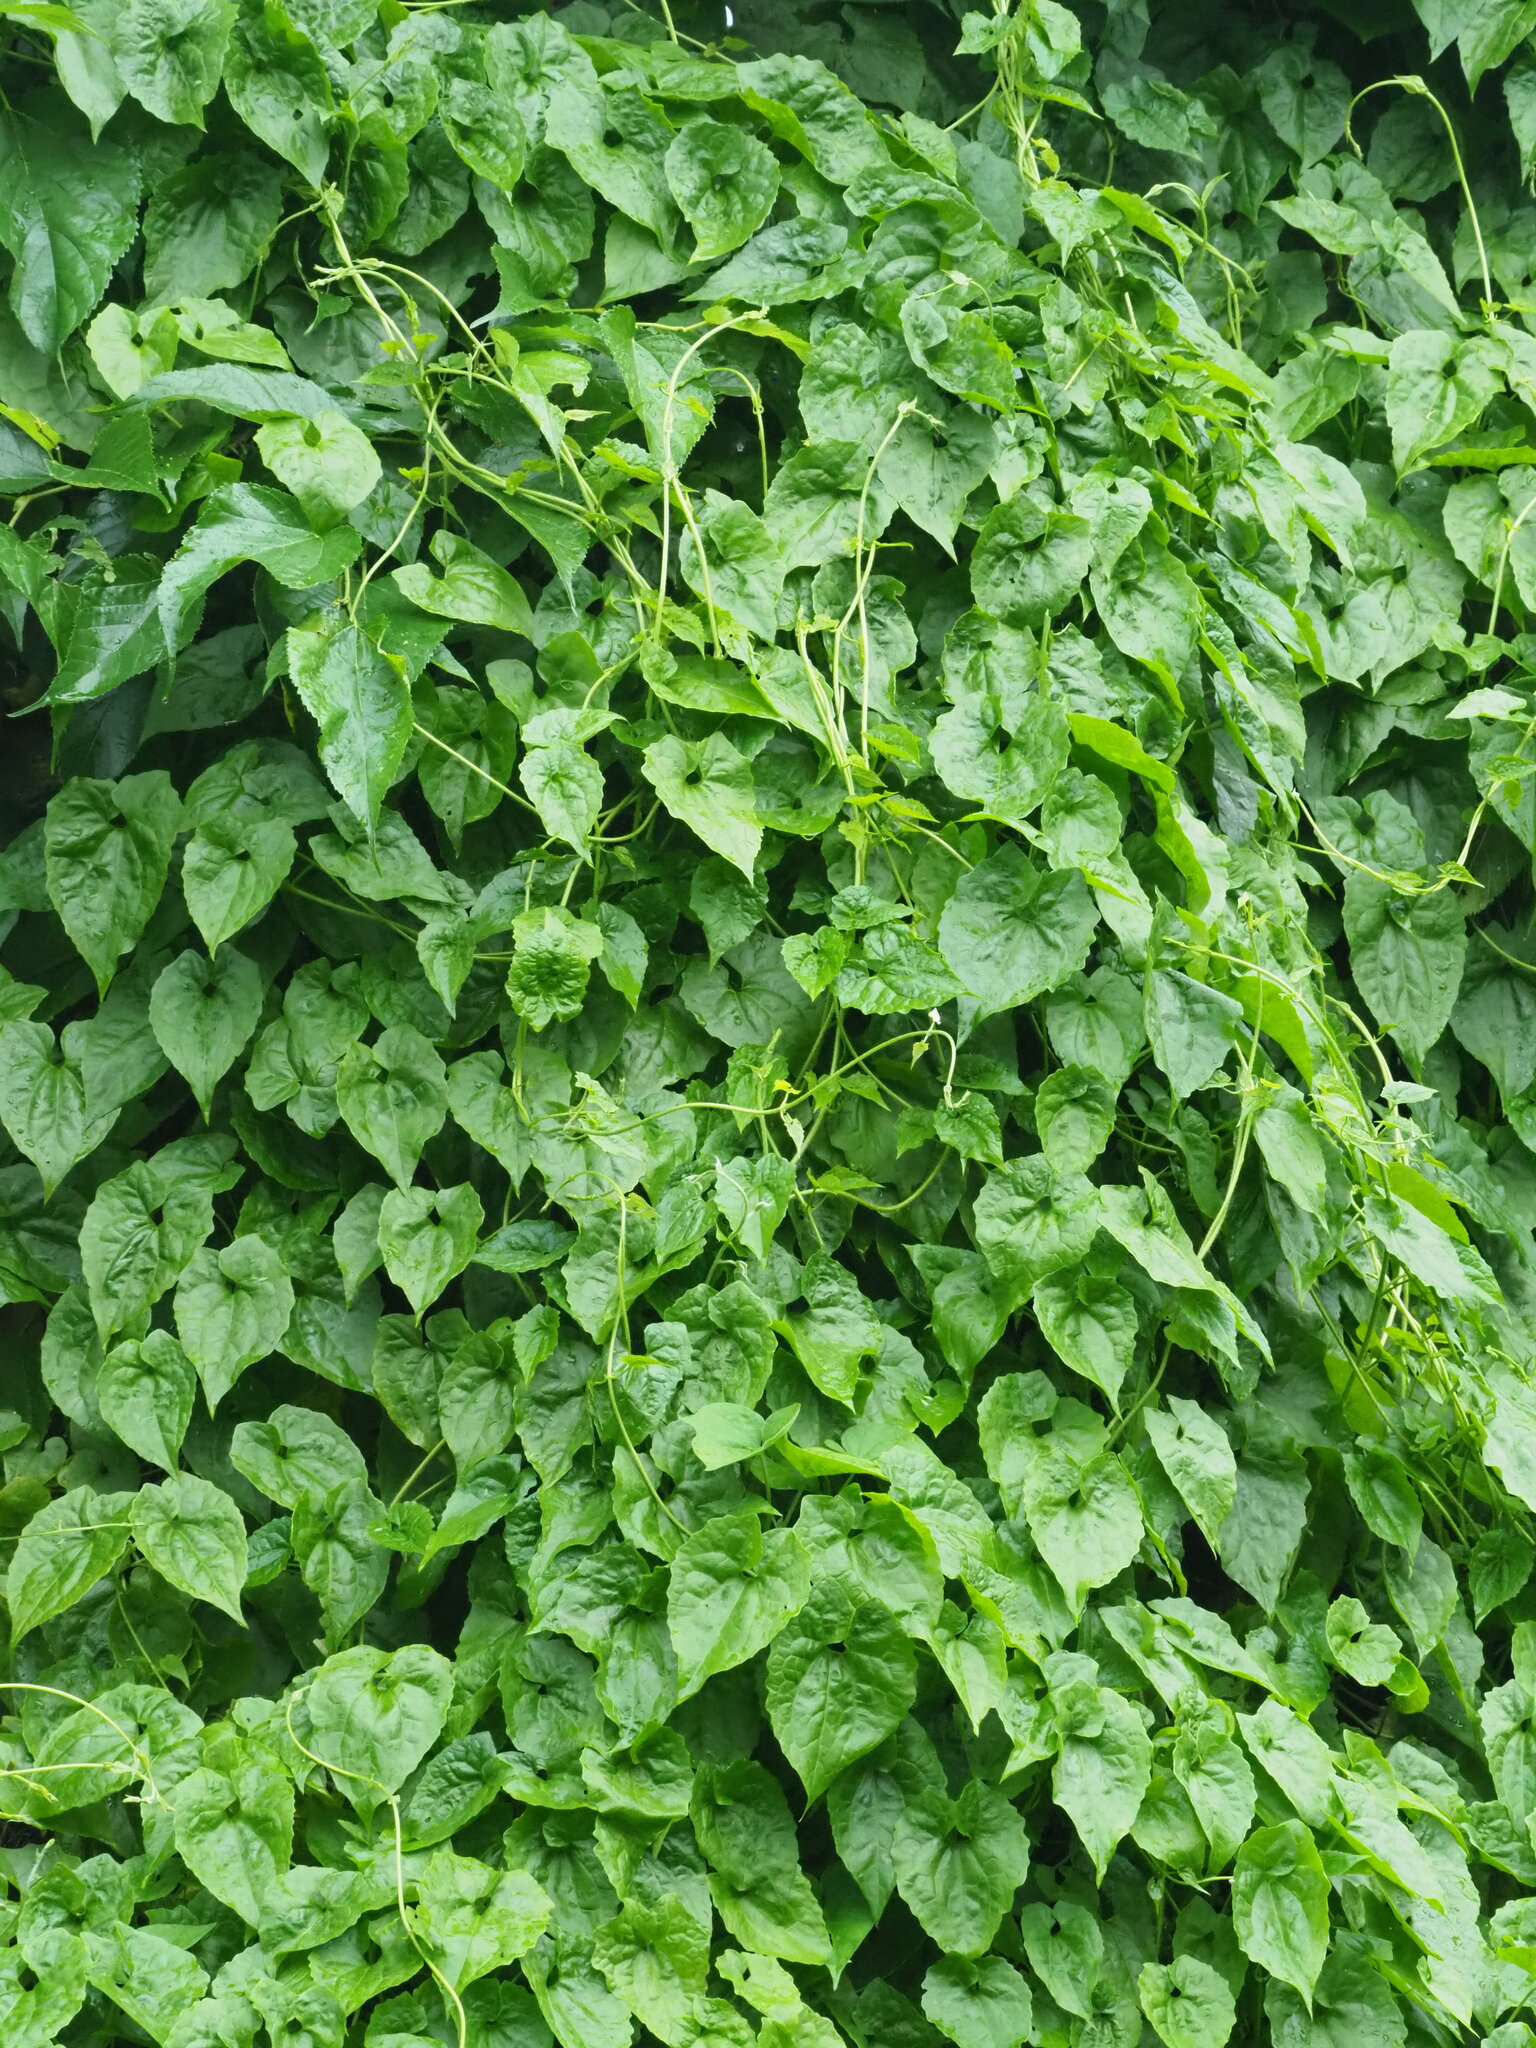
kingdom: Plantae
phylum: Tracheophyta
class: Magnoliopsida
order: Asterales
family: Asteraceae
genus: Mikania
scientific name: Mikania micrantha
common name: Mile-a-minute
